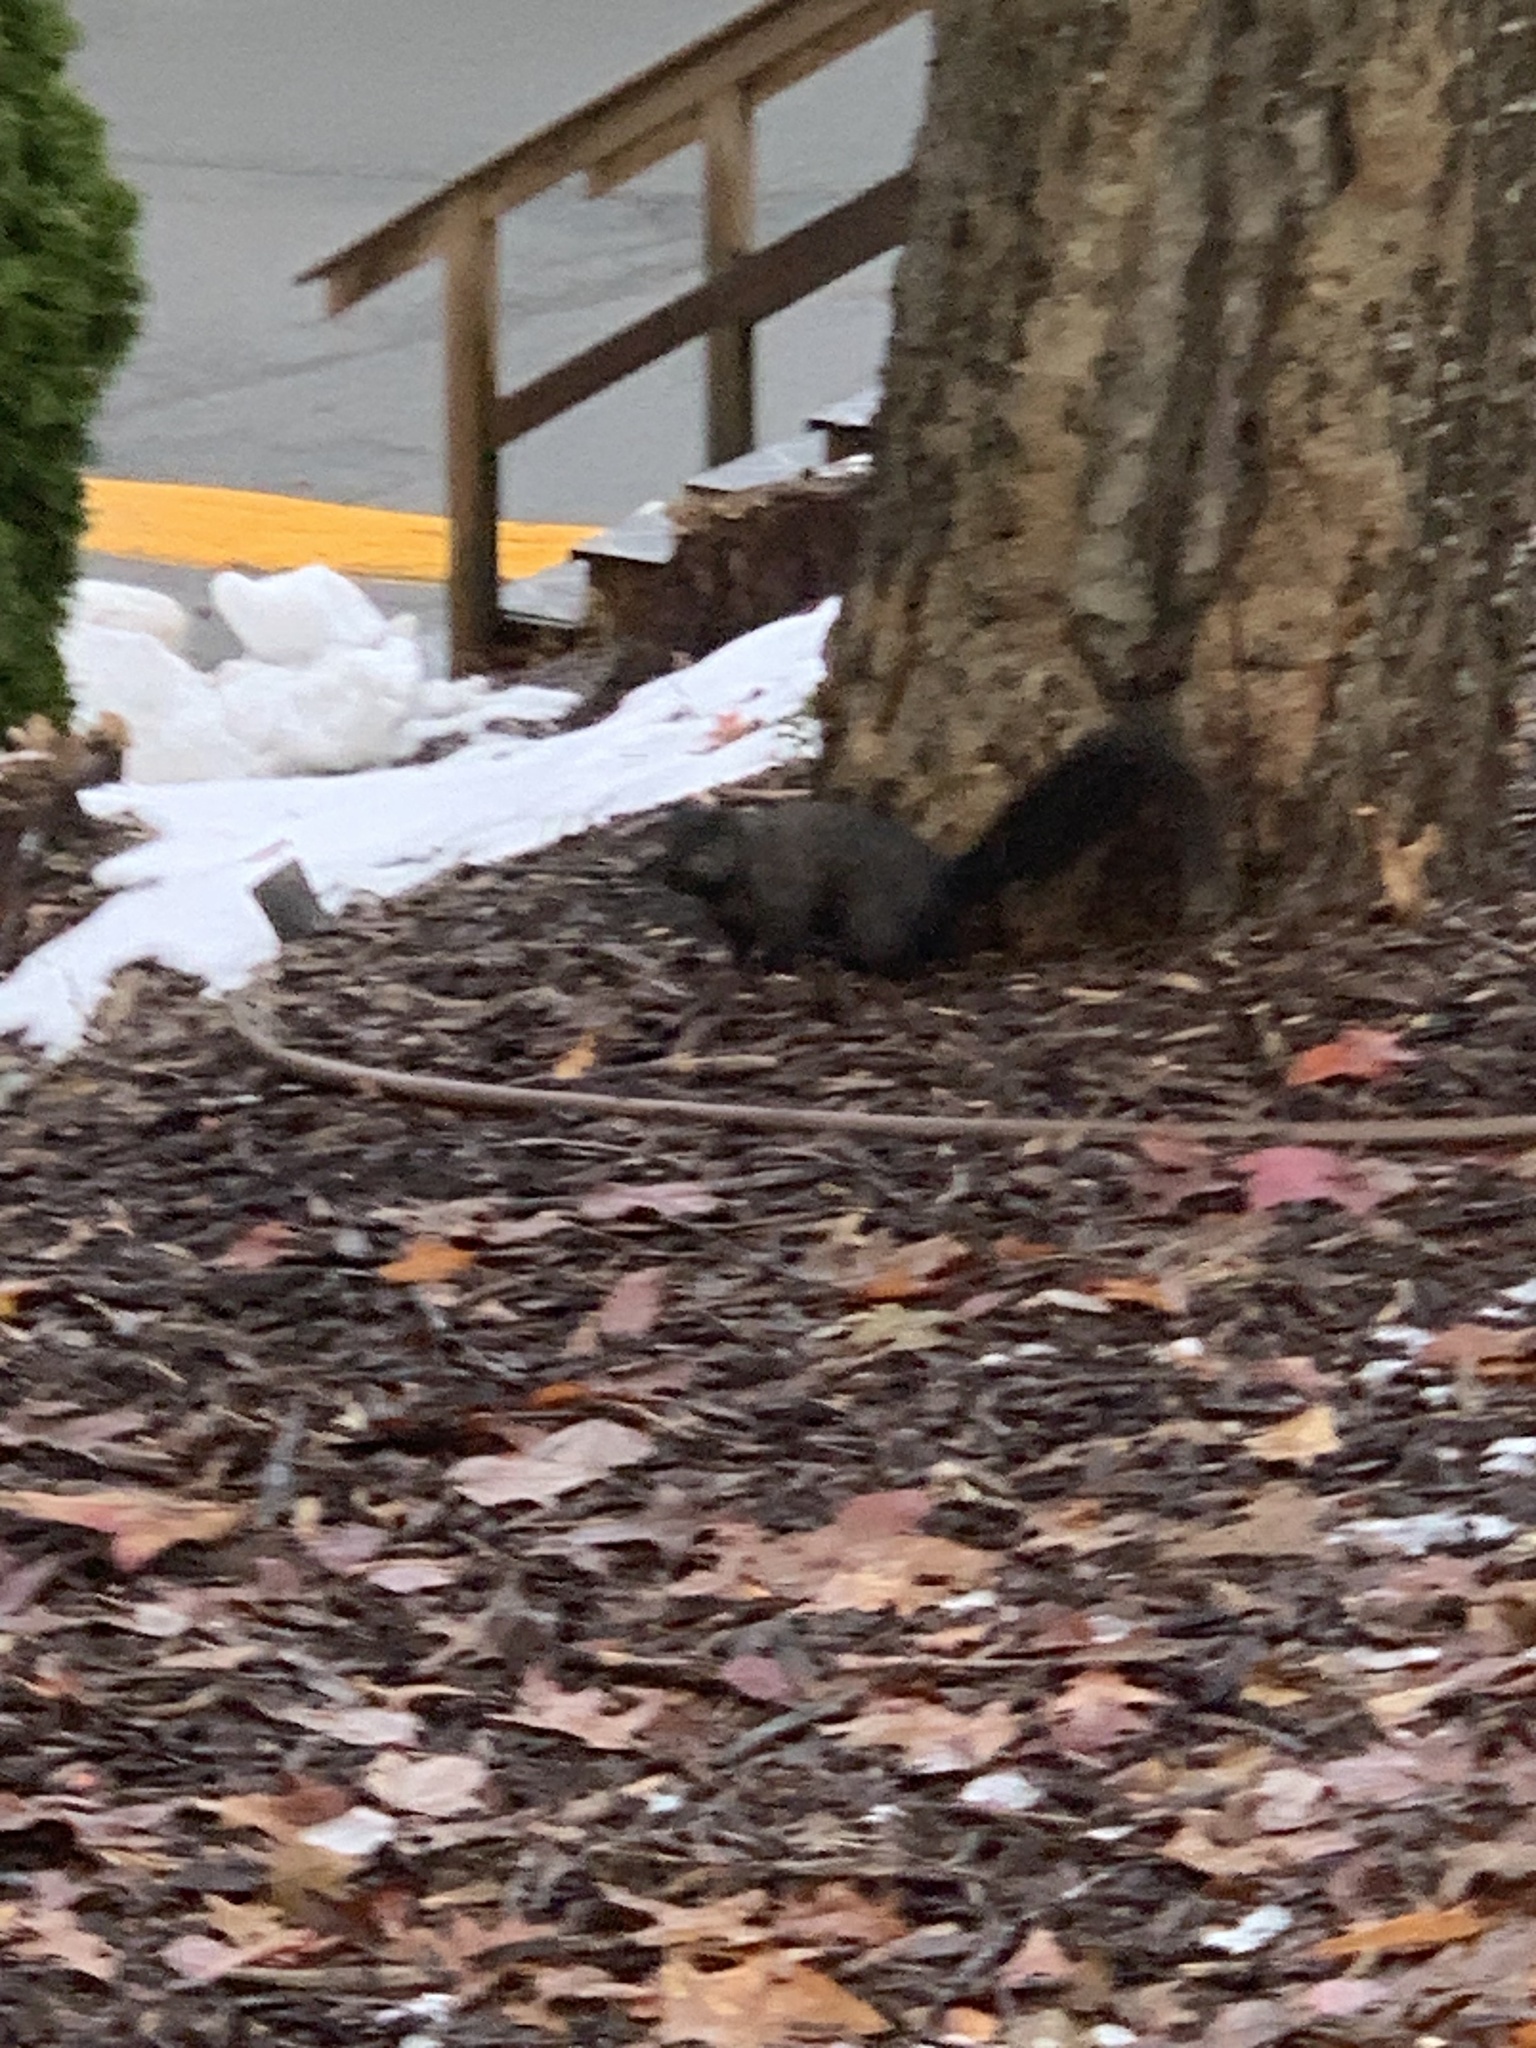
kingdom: Animalia
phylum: Chordata
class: Mammalia
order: Rodentia
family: Sciuridae
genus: Sciurus
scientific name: Sciurus carolinensis
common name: Eastern gray squirrel
